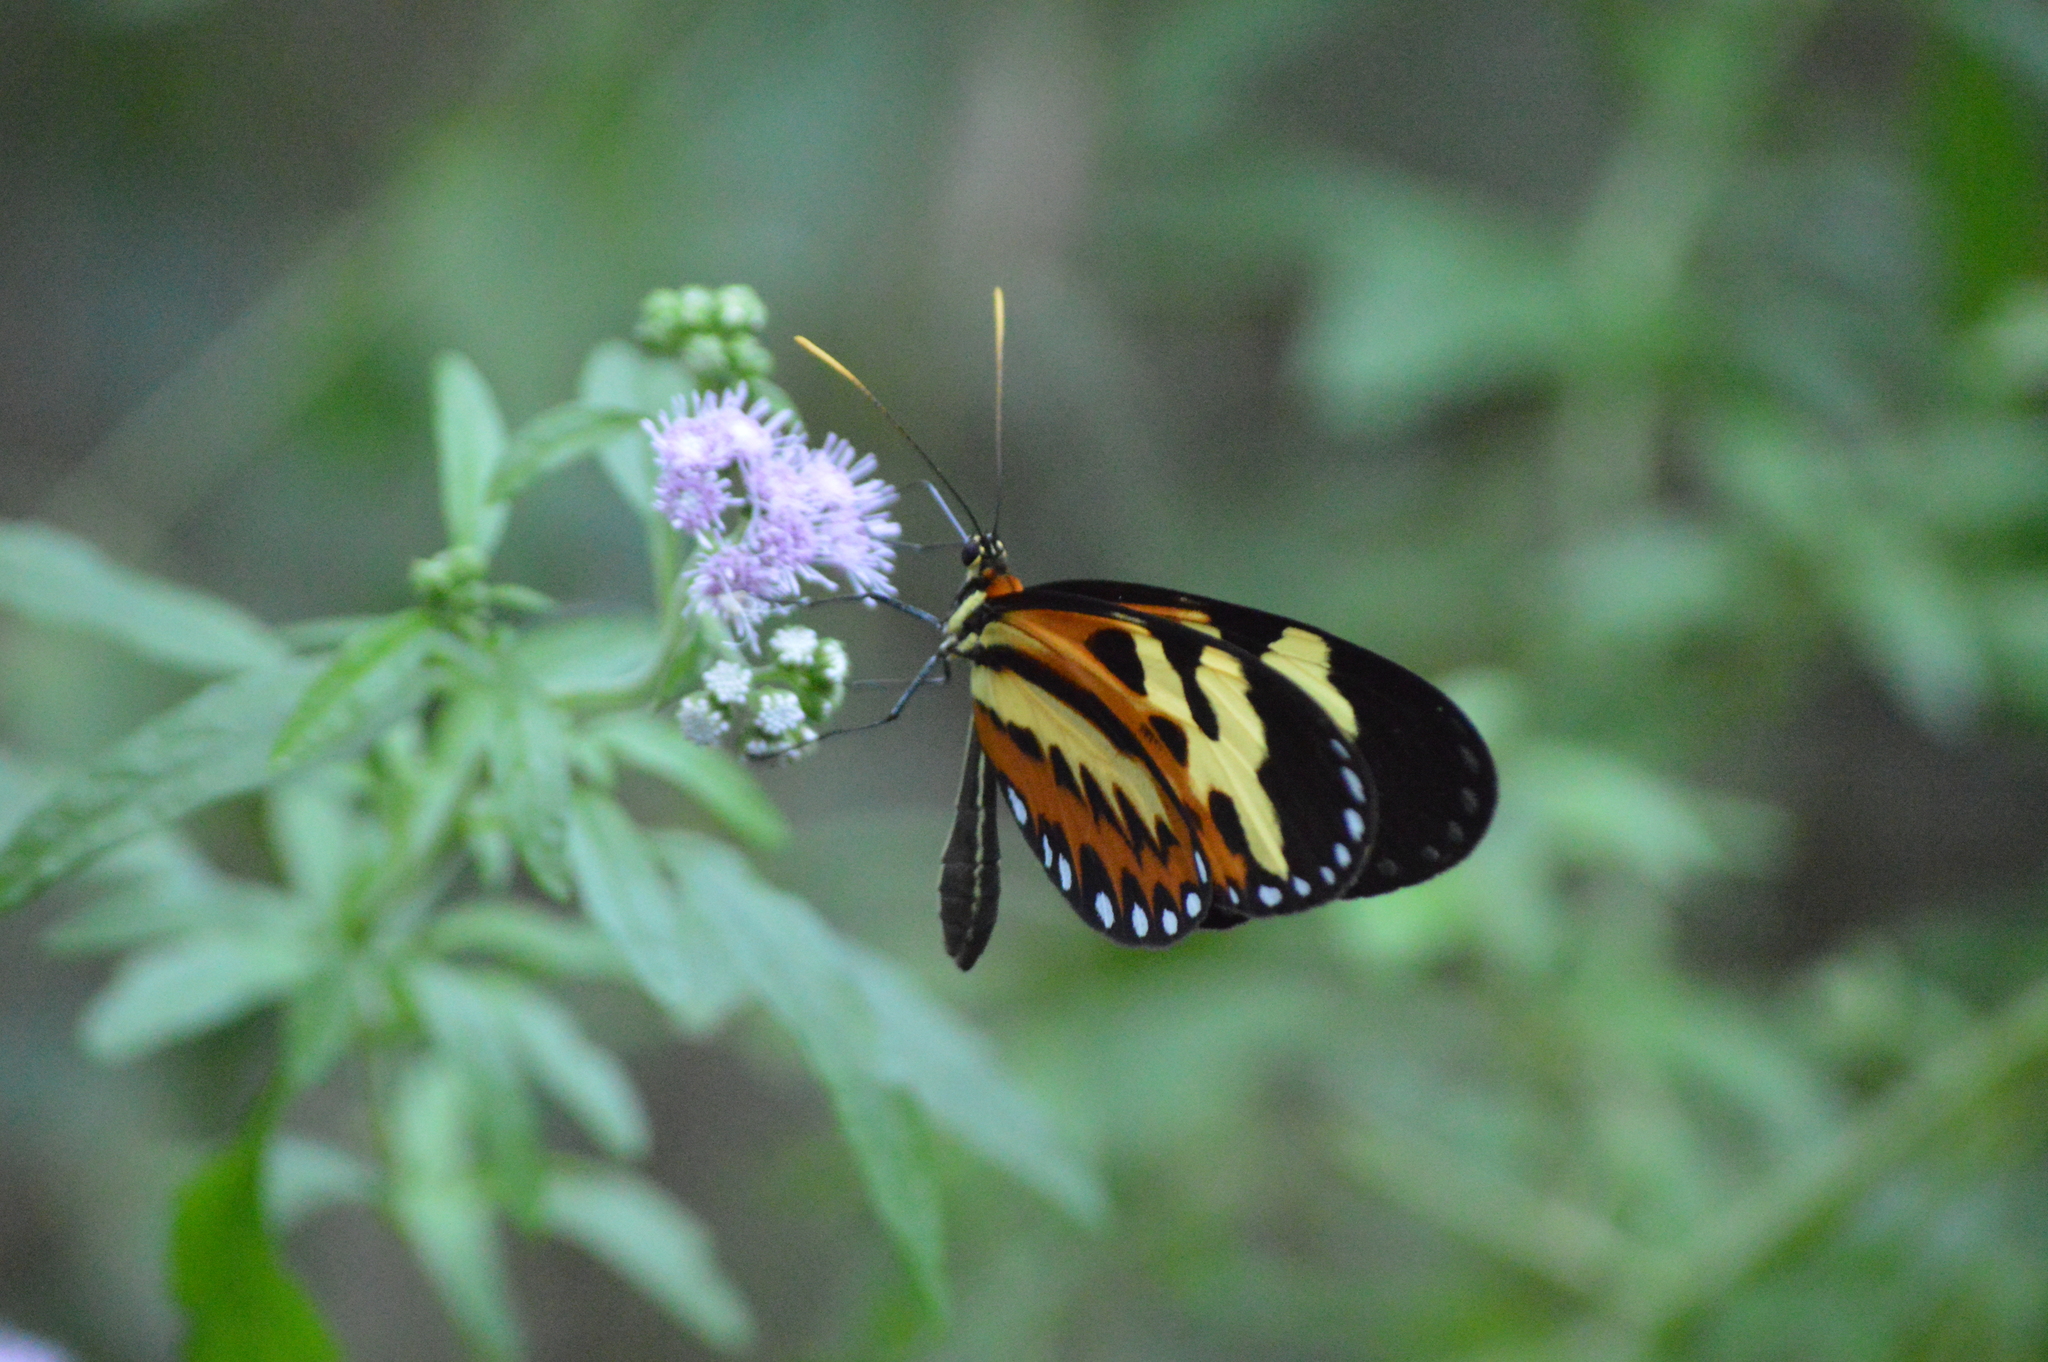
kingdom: Animalia
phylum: Arthropoda
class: Insecta
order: Lepidoptera
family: Nymphalidae
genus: Mechanitis
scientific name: Mechanitis polymnia
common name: Disturbed tigerwing
